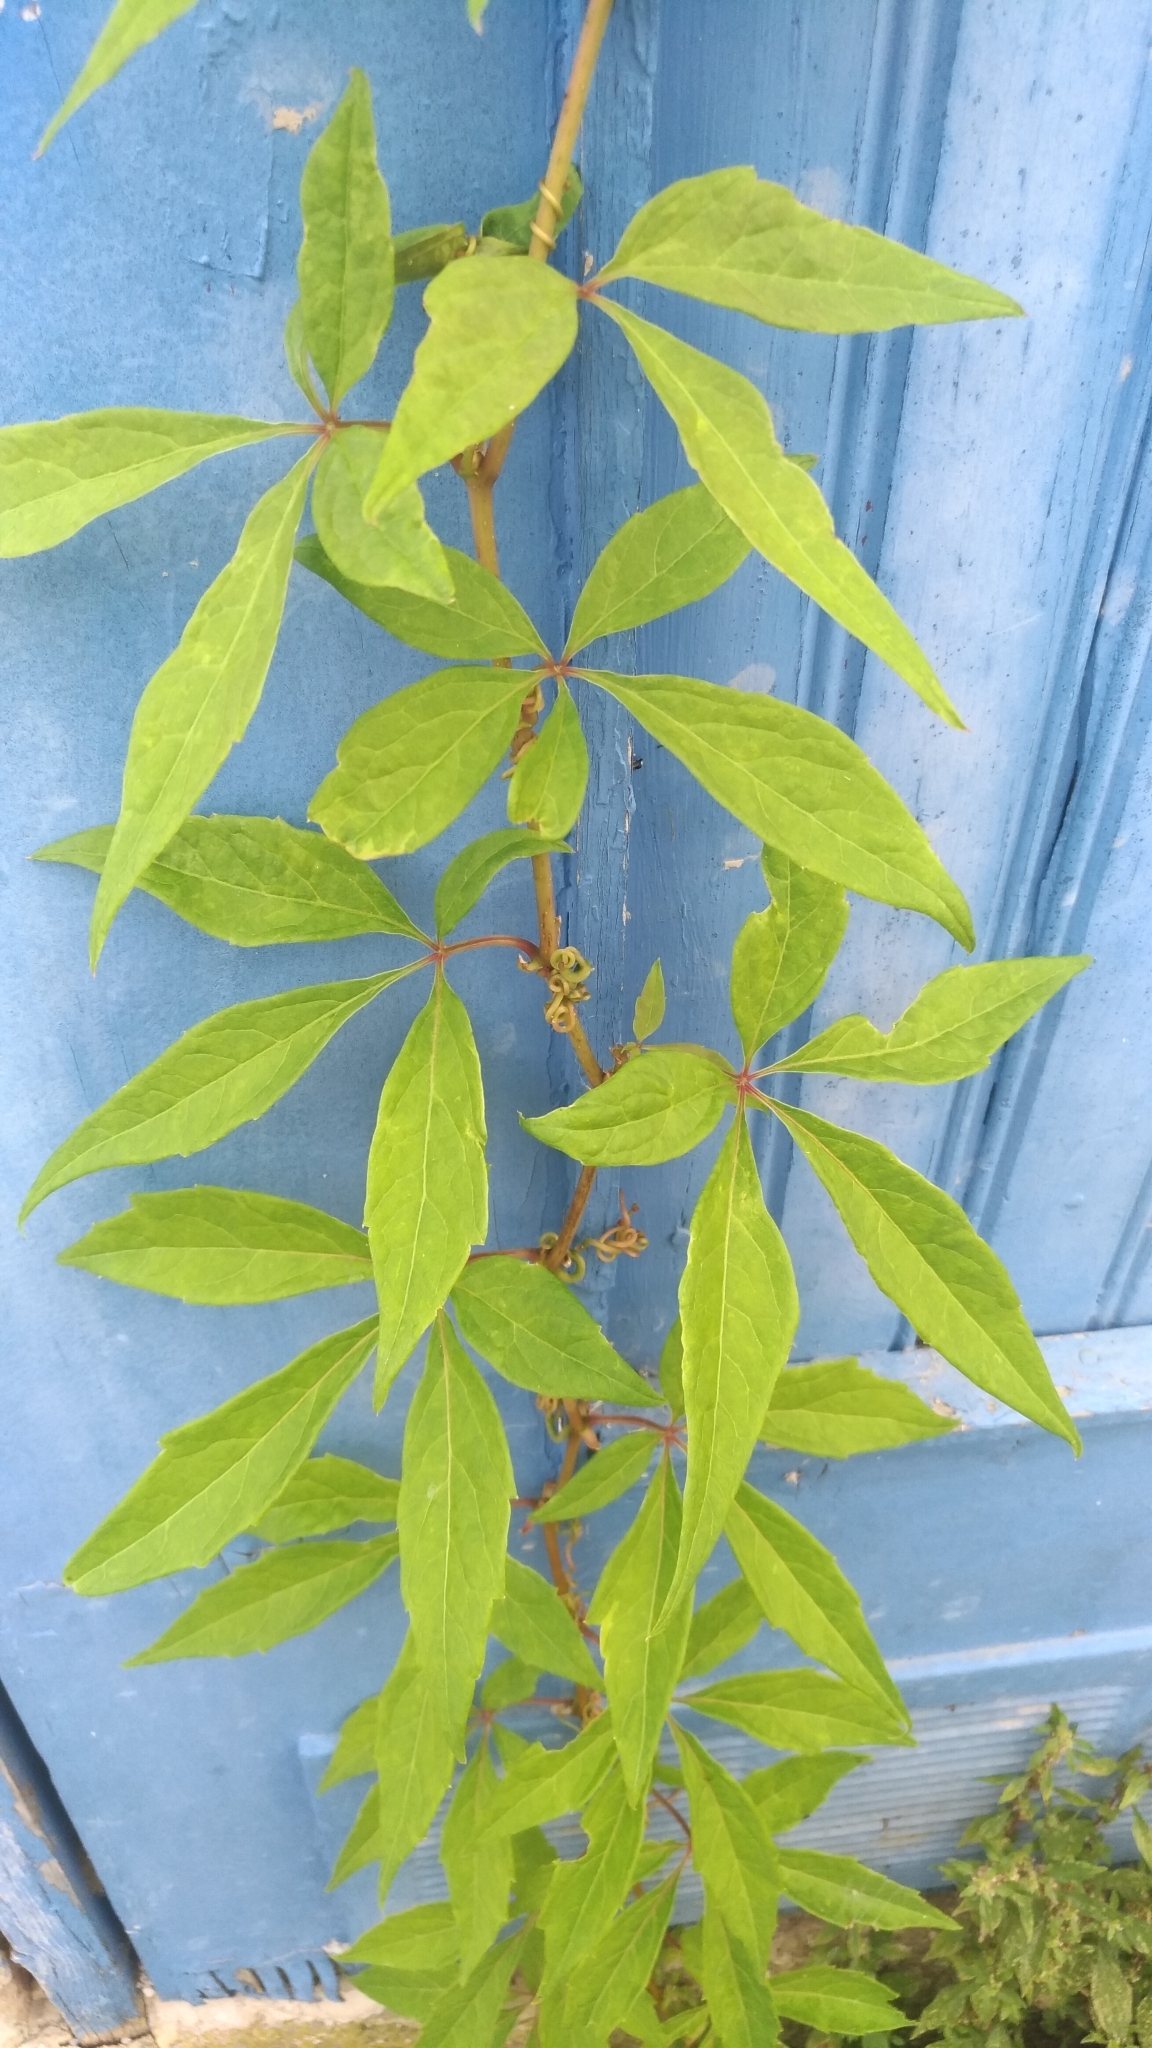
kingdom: Plantae
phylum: Tracheophyta
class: Magnoliopsida
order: Lamiales
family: Lamiaceae
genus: Vitex
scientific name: Vitex agnus-castus
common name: Chasteberry
